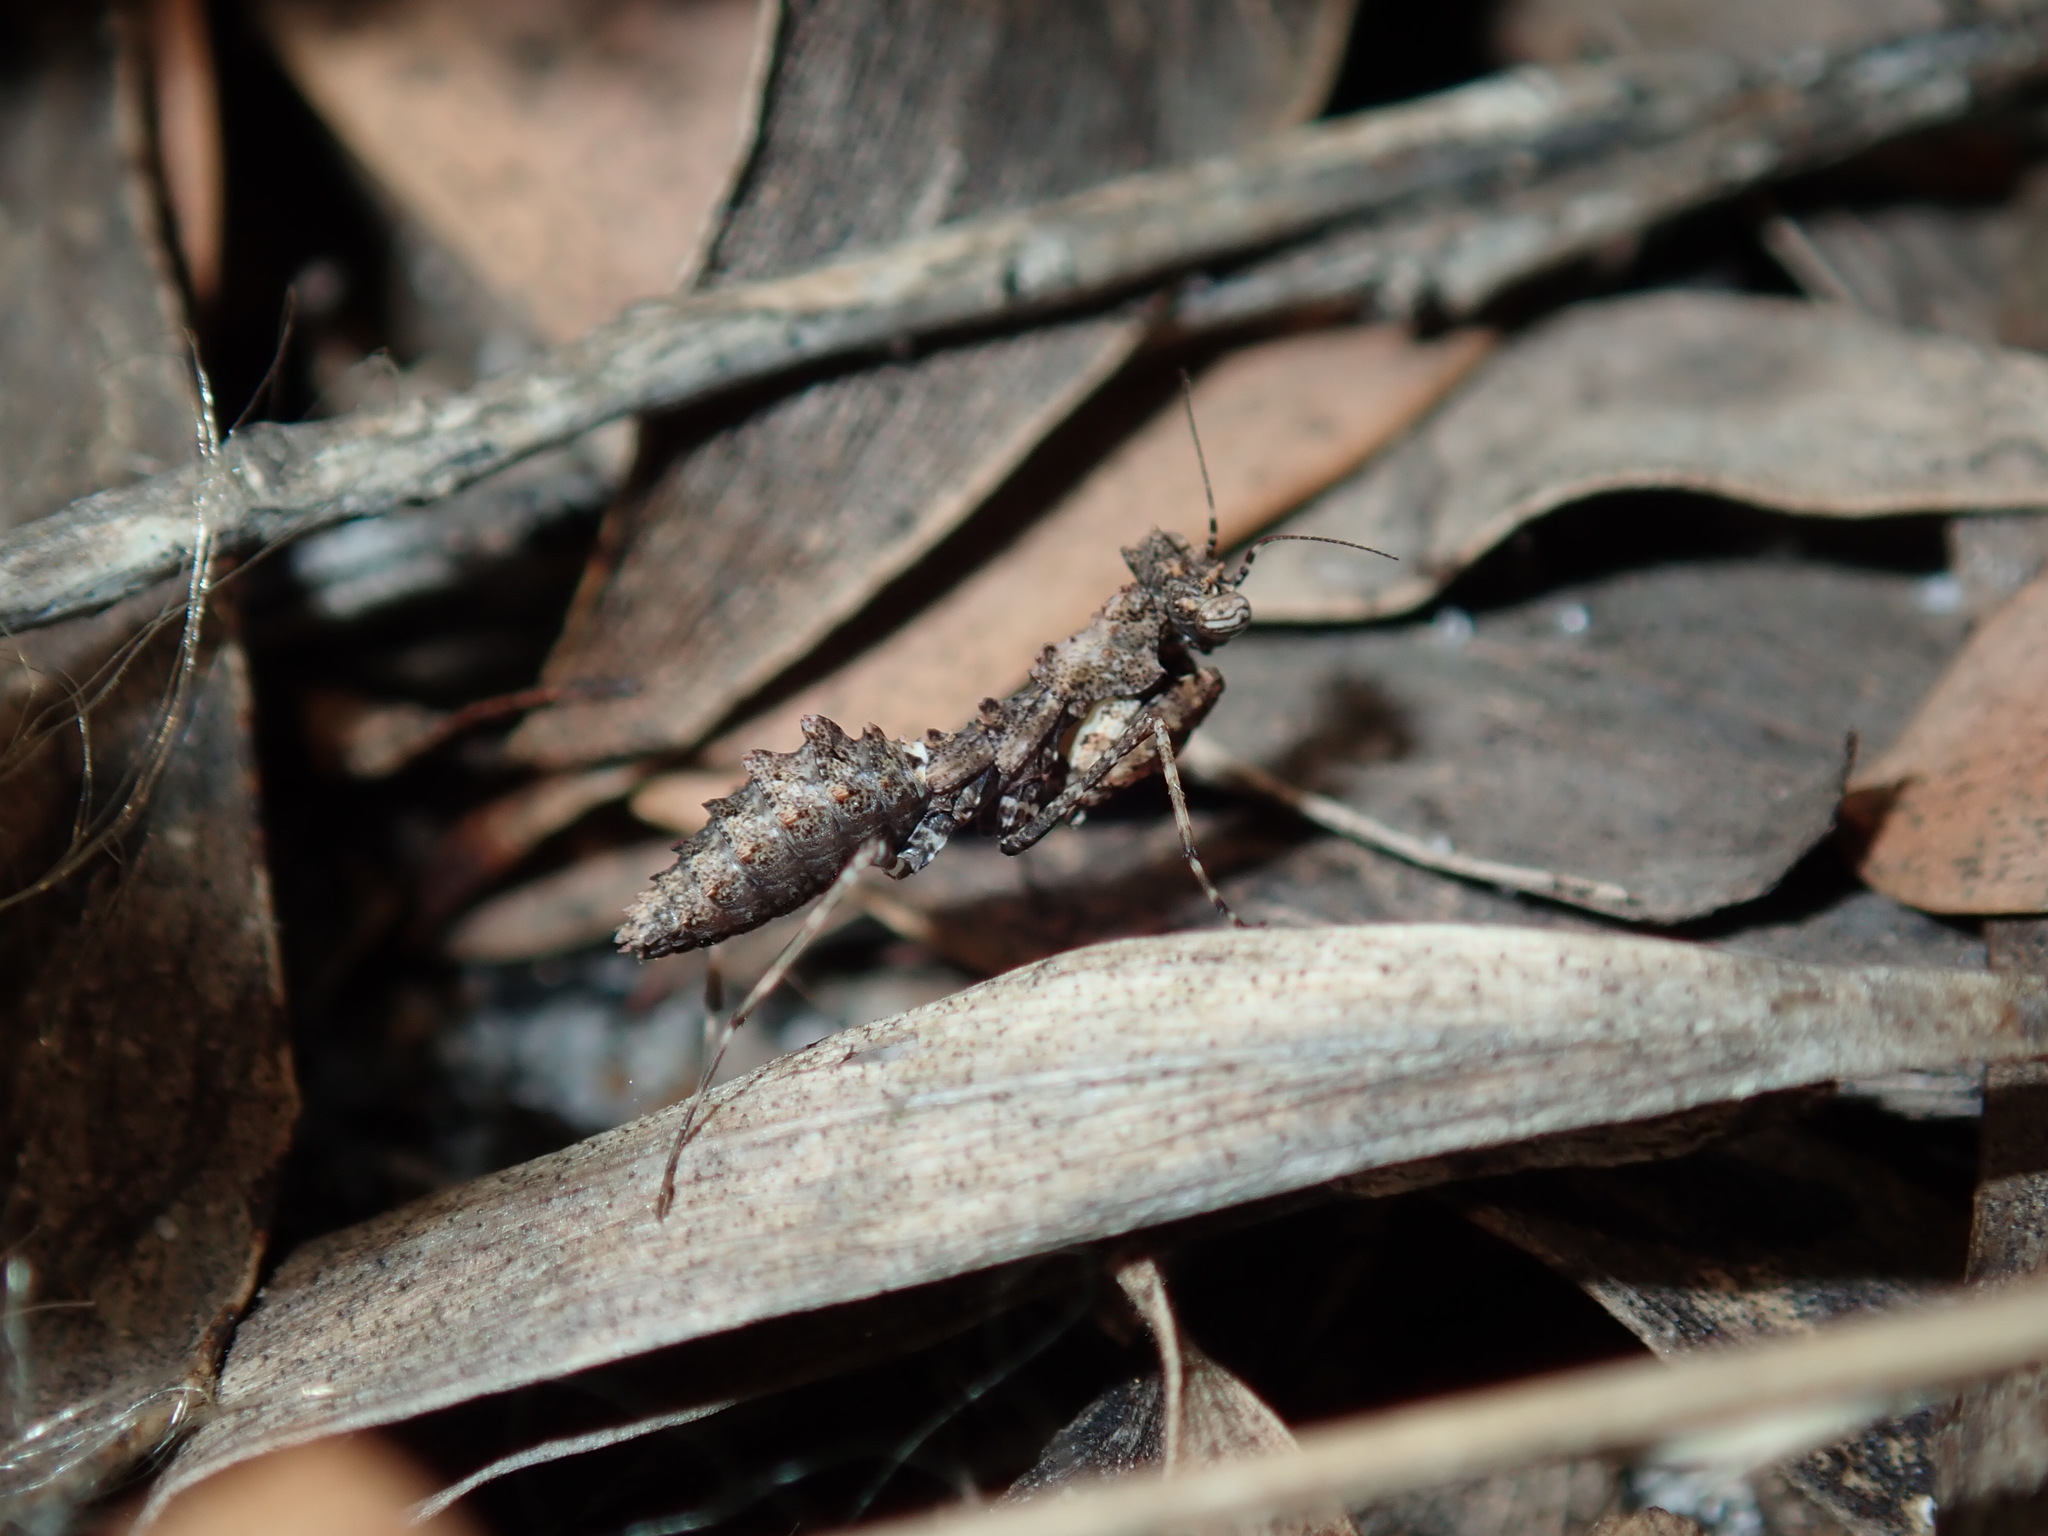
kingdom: Animalia
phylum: Arthropoda
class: Insecta
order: Mantodea
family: Nanomantidae
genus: Paraoxypilus
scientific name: Paraoxypilus tasmaniensis
